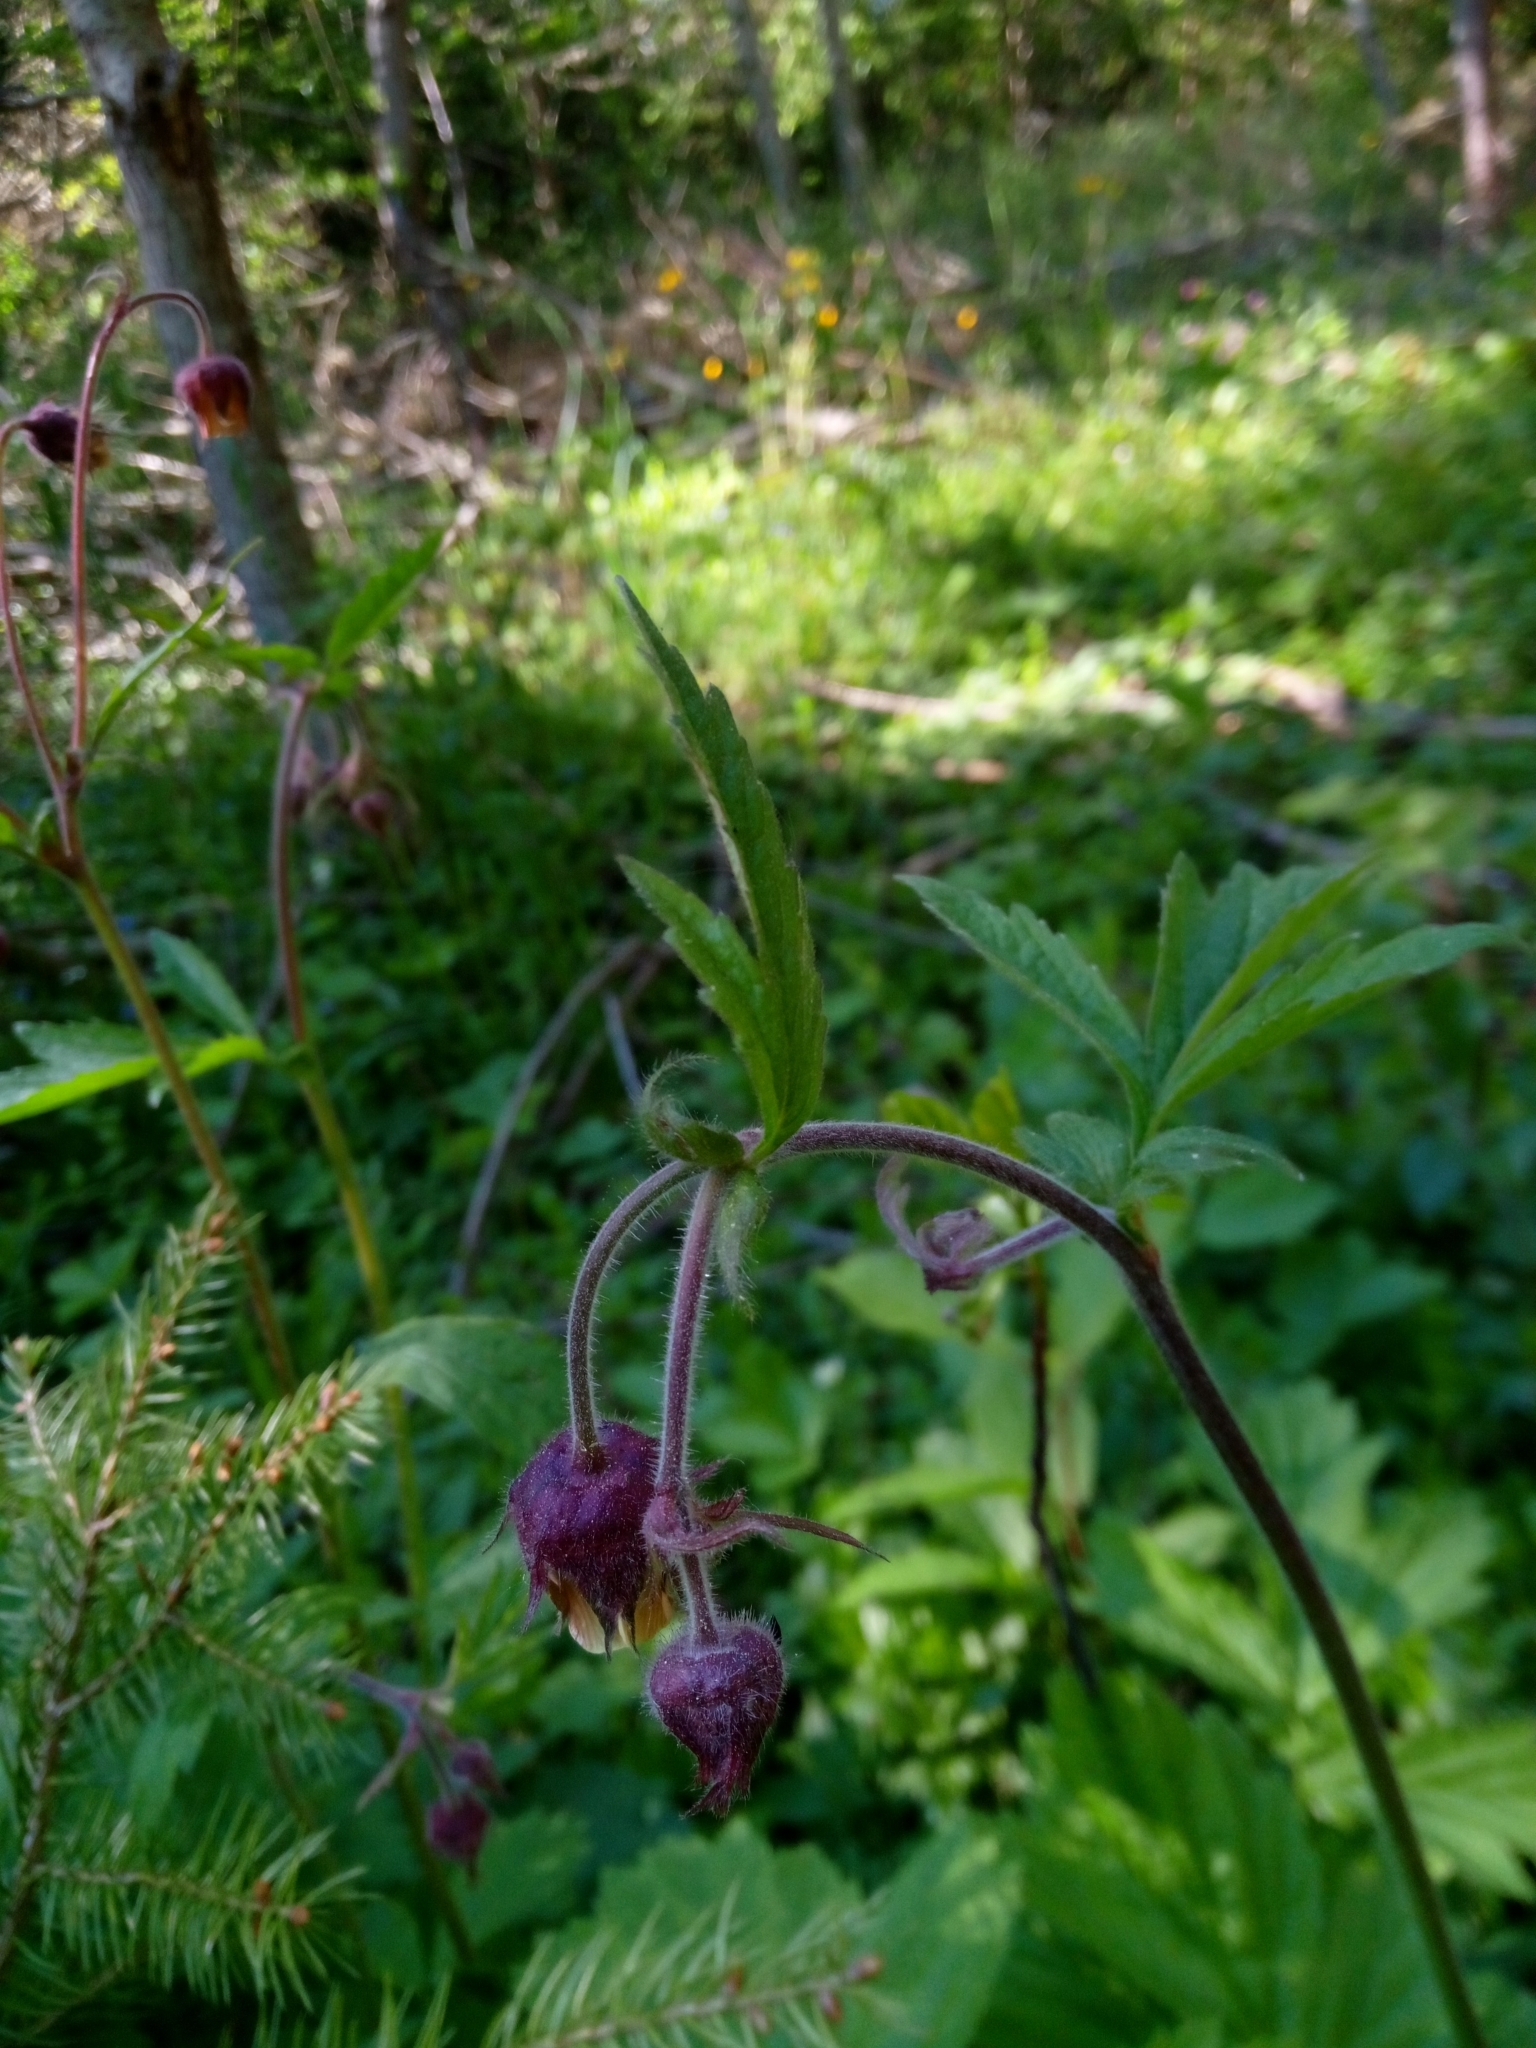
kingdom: Plantae
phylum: Tracheophyta
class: Magnoliopsida
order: Rosales
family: Rosaceae
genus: Geum
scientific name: Geum rivale
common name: Water avens
